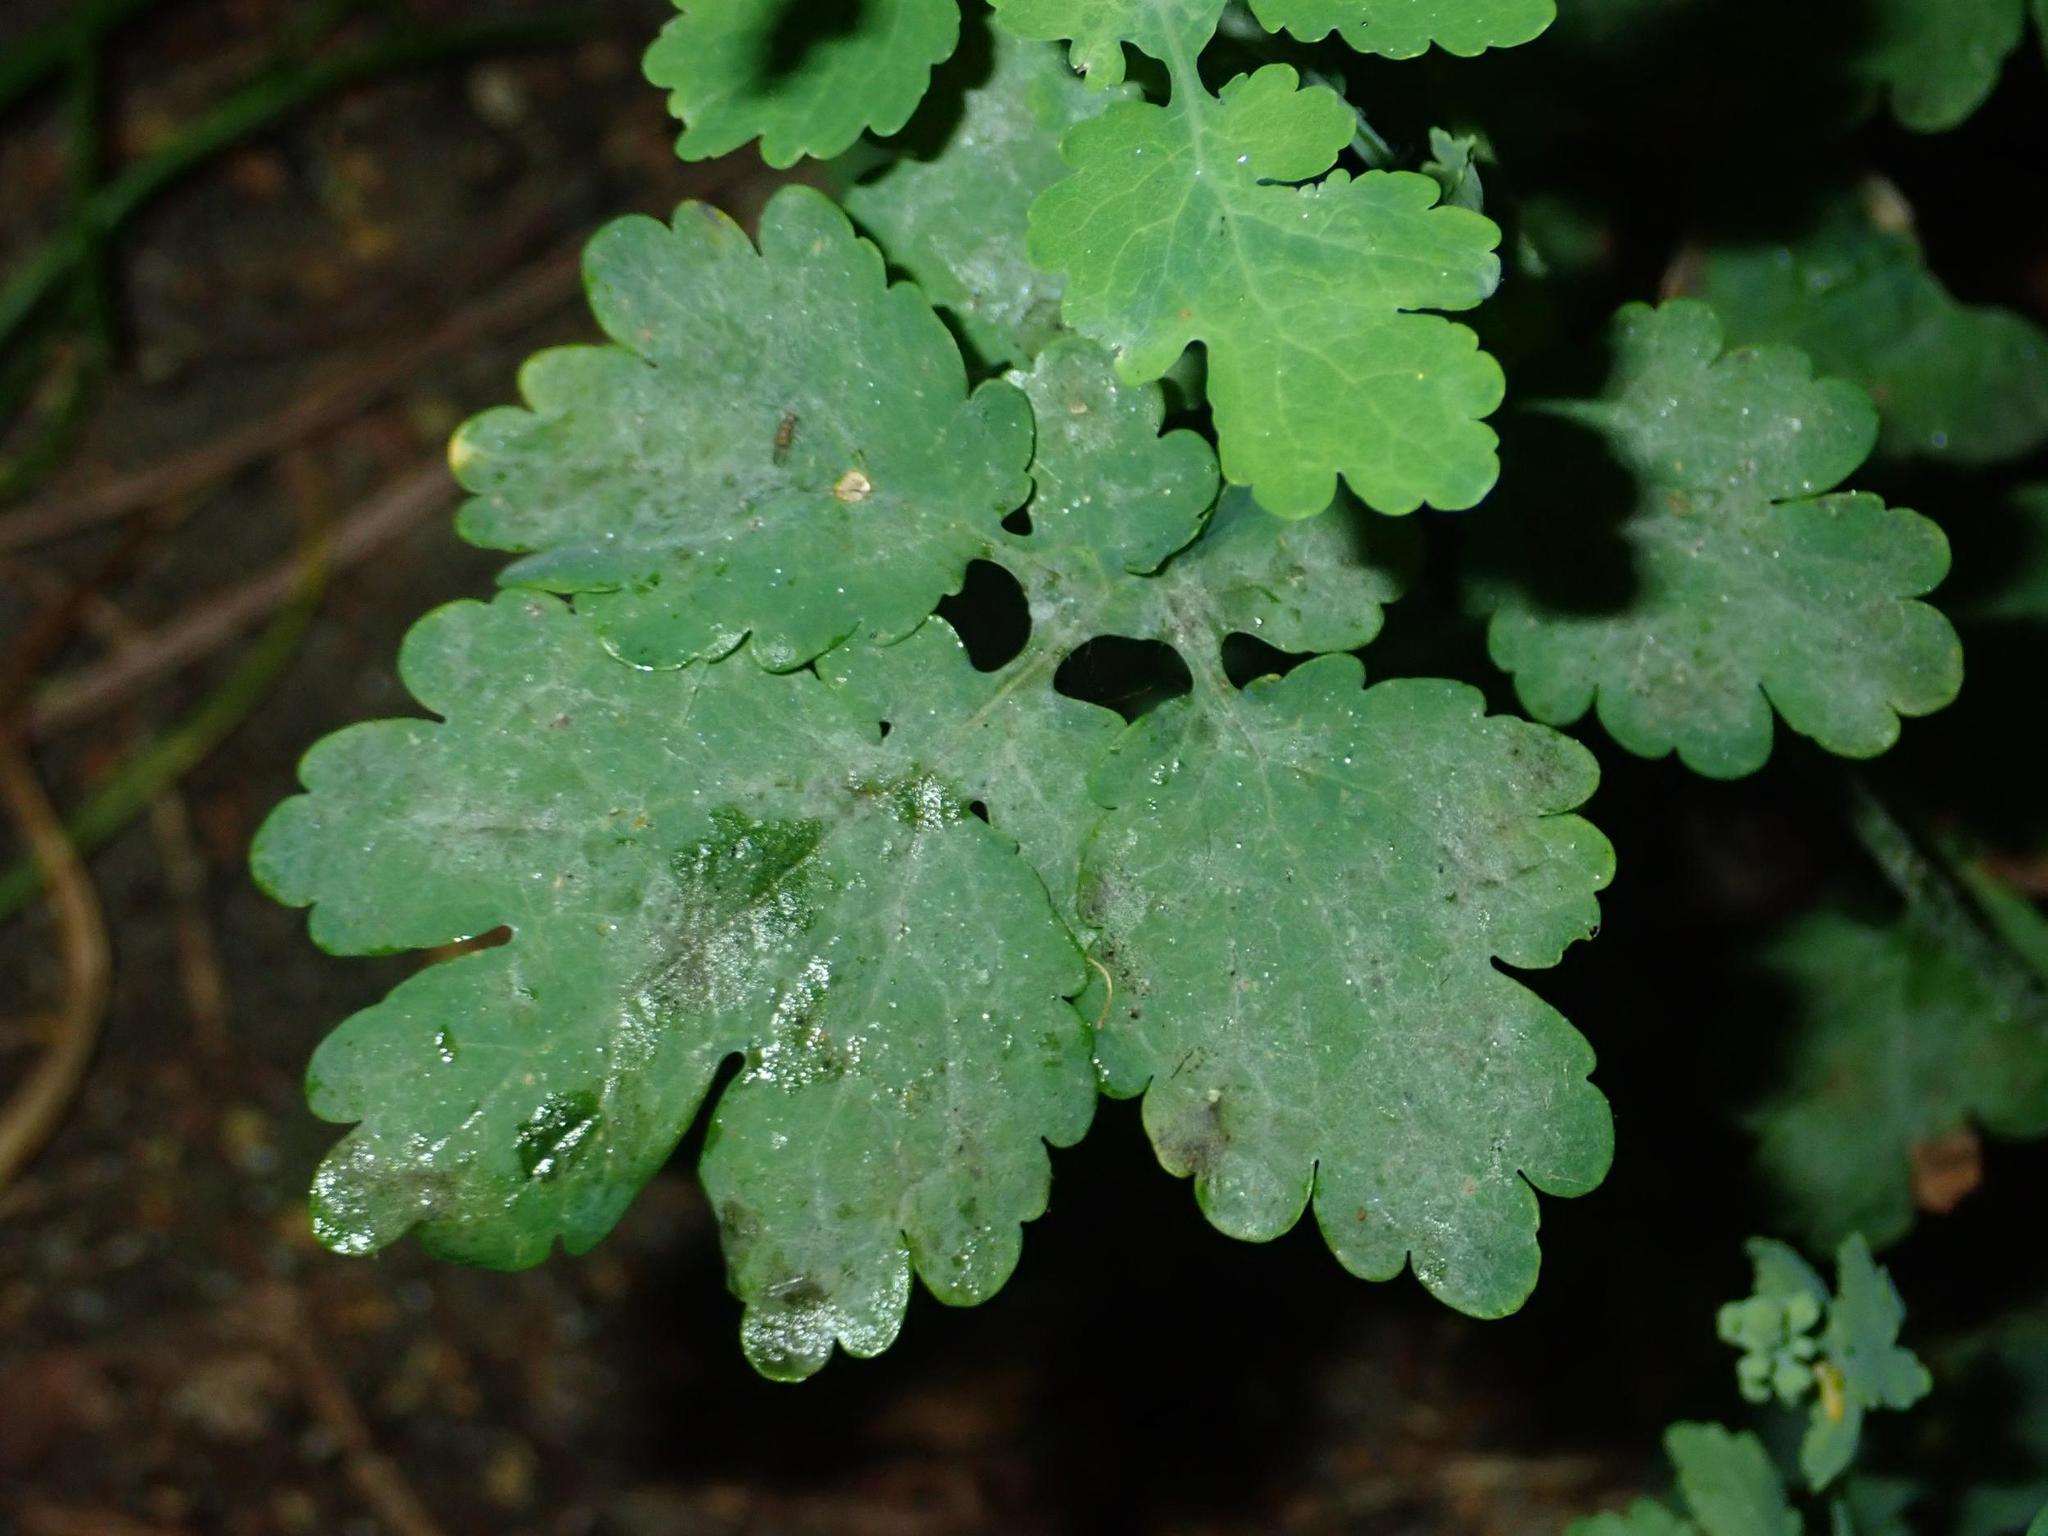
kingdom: Fungi
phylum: Ascomycota
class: Leotiomycetes
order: Helotiales
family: Erysiphaceae
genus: Erysiphe
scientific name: Erysiphe macleayae
